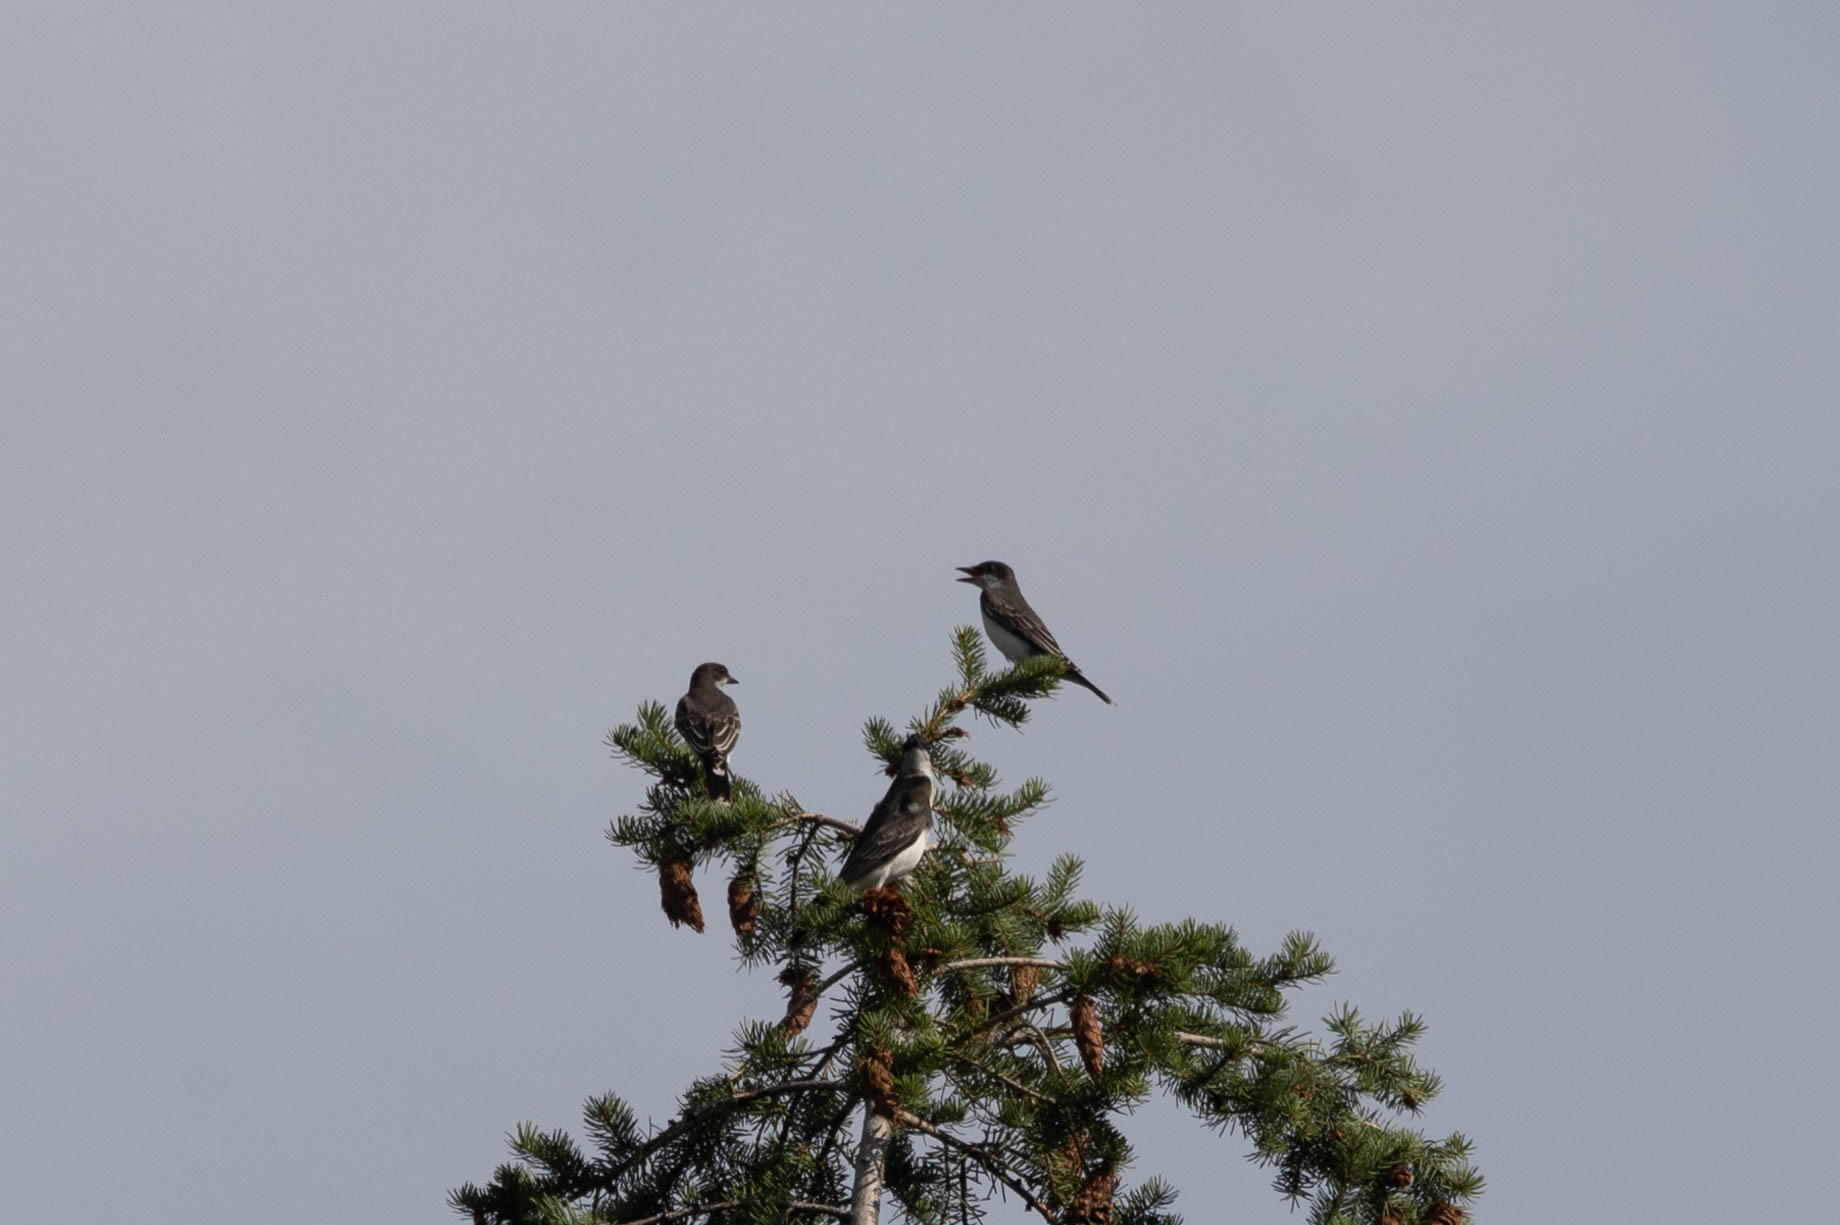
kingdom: Animalia
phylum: Chordata
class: Aves
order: Passeriformes
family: Tyrannidae
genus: Tyrannus
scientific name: Tyrannus tyrannus
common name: Eastern kingbird
